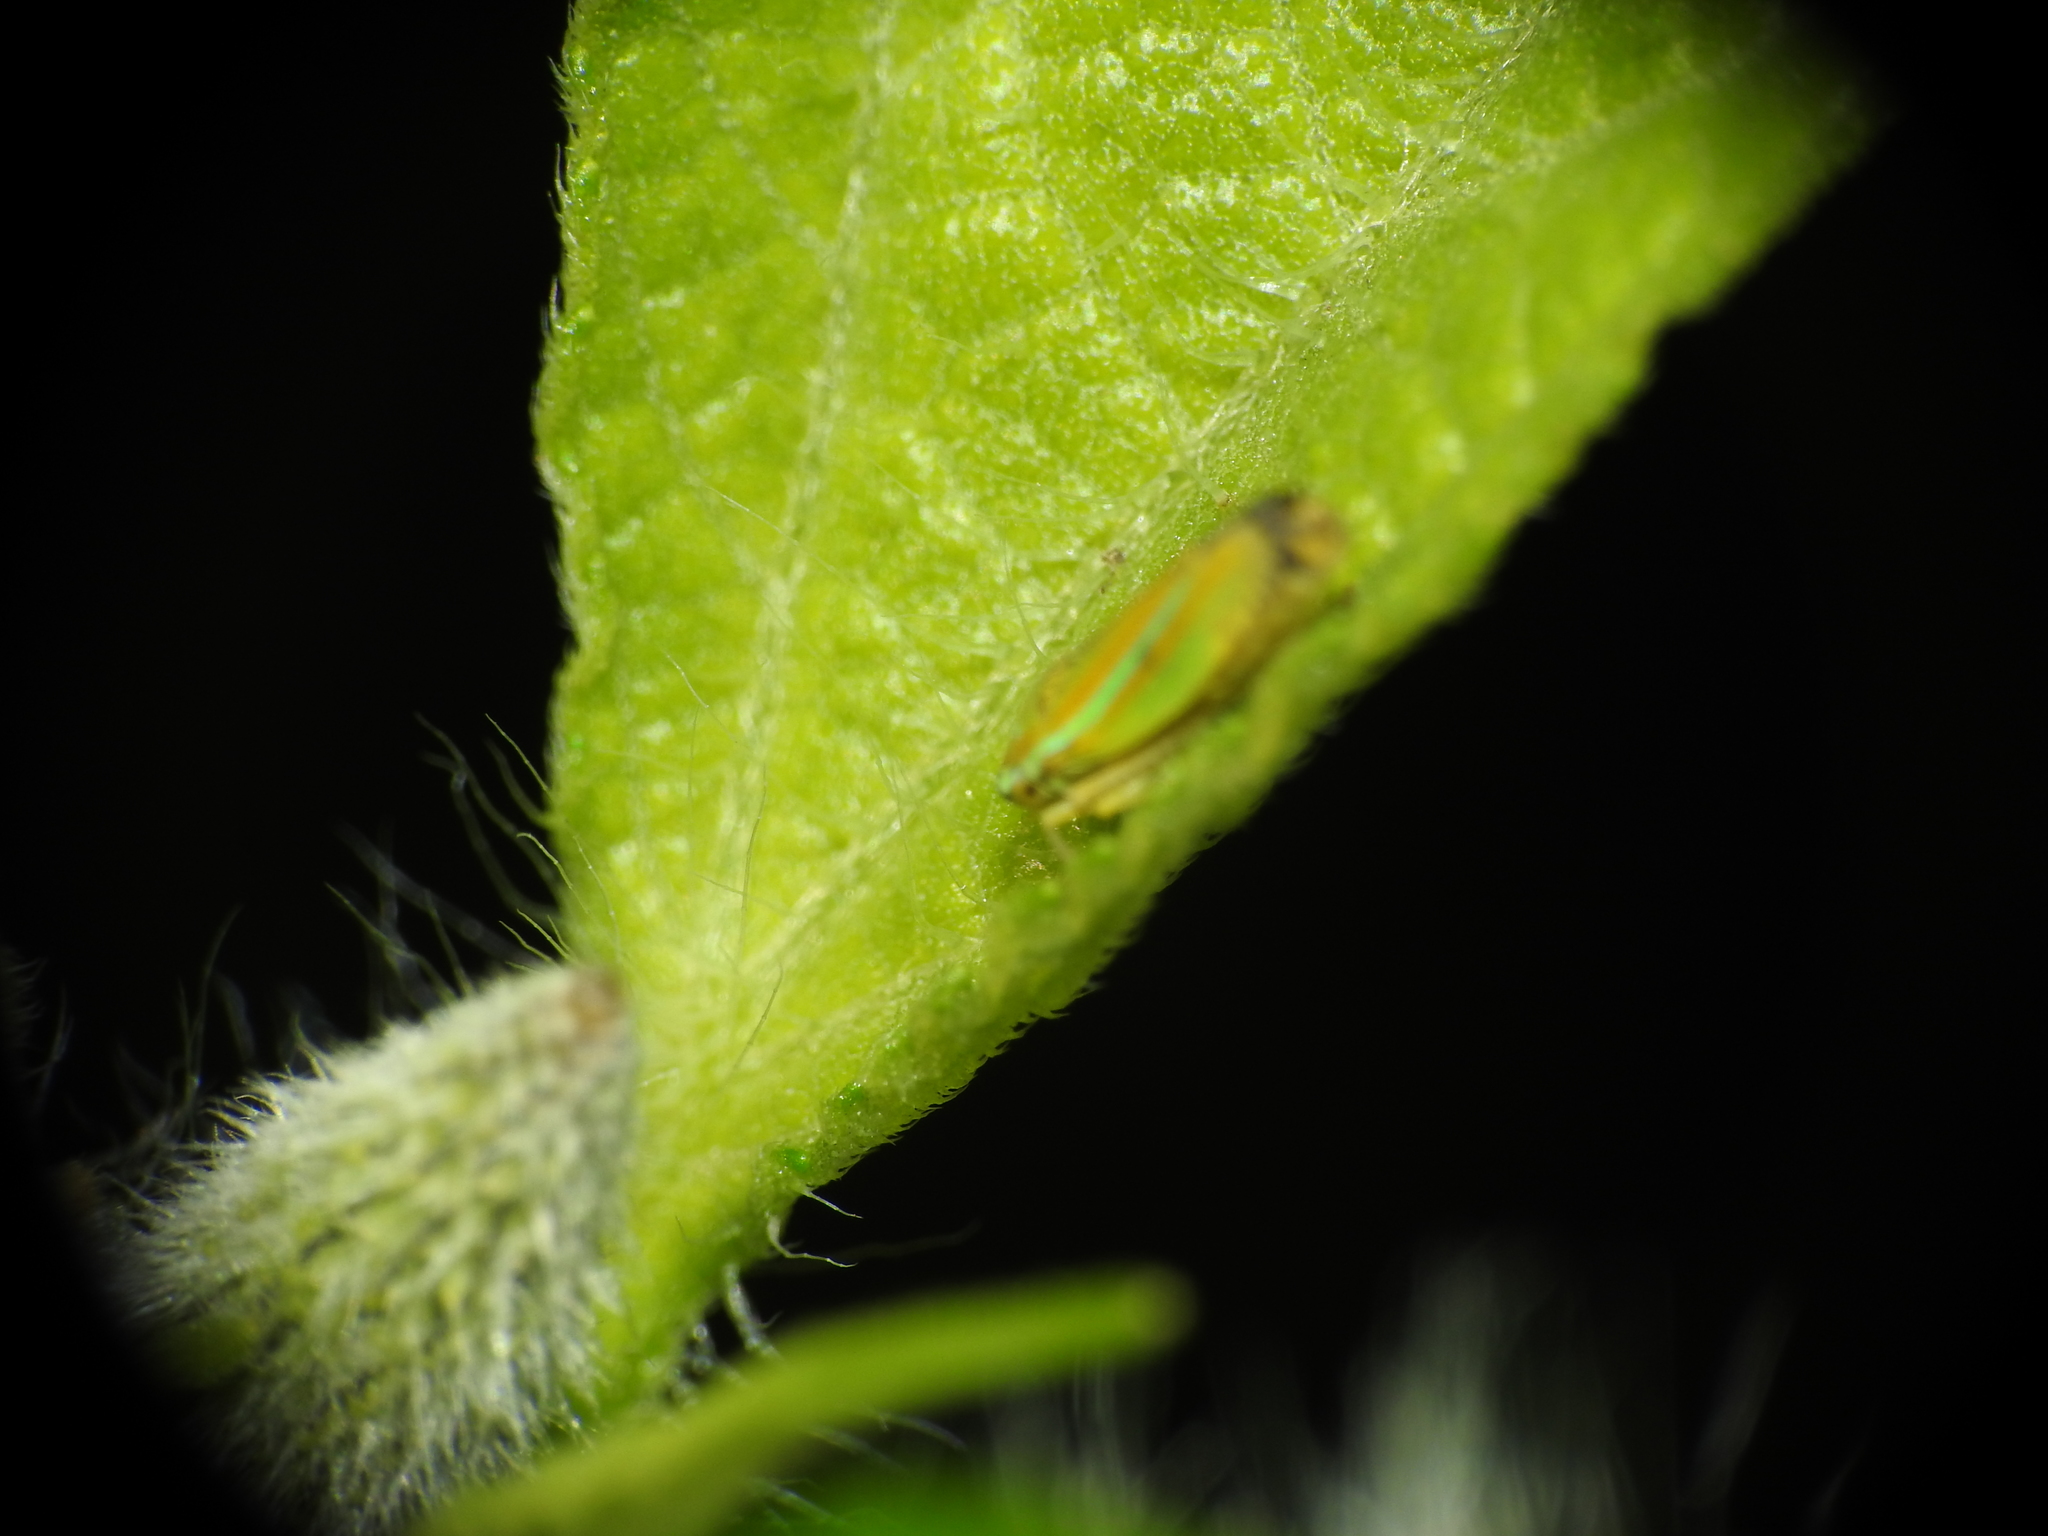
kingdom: Animalia
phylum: Arthropoda
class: Insecta
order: Hemiptera
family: Cicadellidae
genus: Graphocephala
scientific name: Graphocephala versuta
